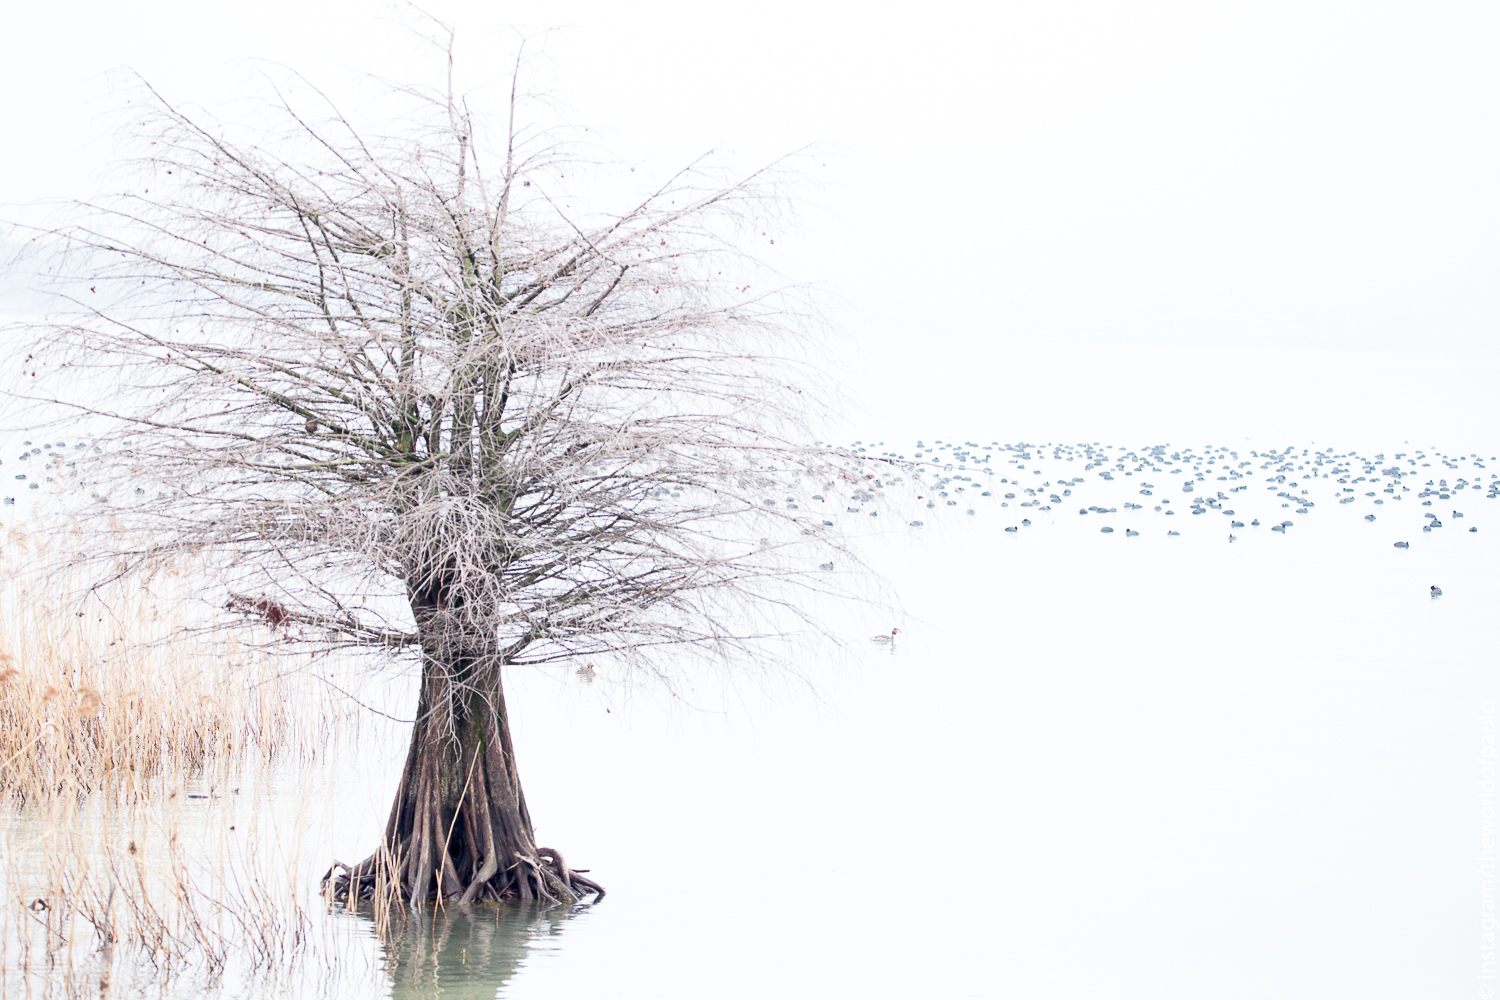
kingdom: Animalia
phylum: Chordata
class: Aves
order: Gruiformes
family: Rallidae
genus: Fulica
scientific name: Fulica atra
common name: Eurasian coot
